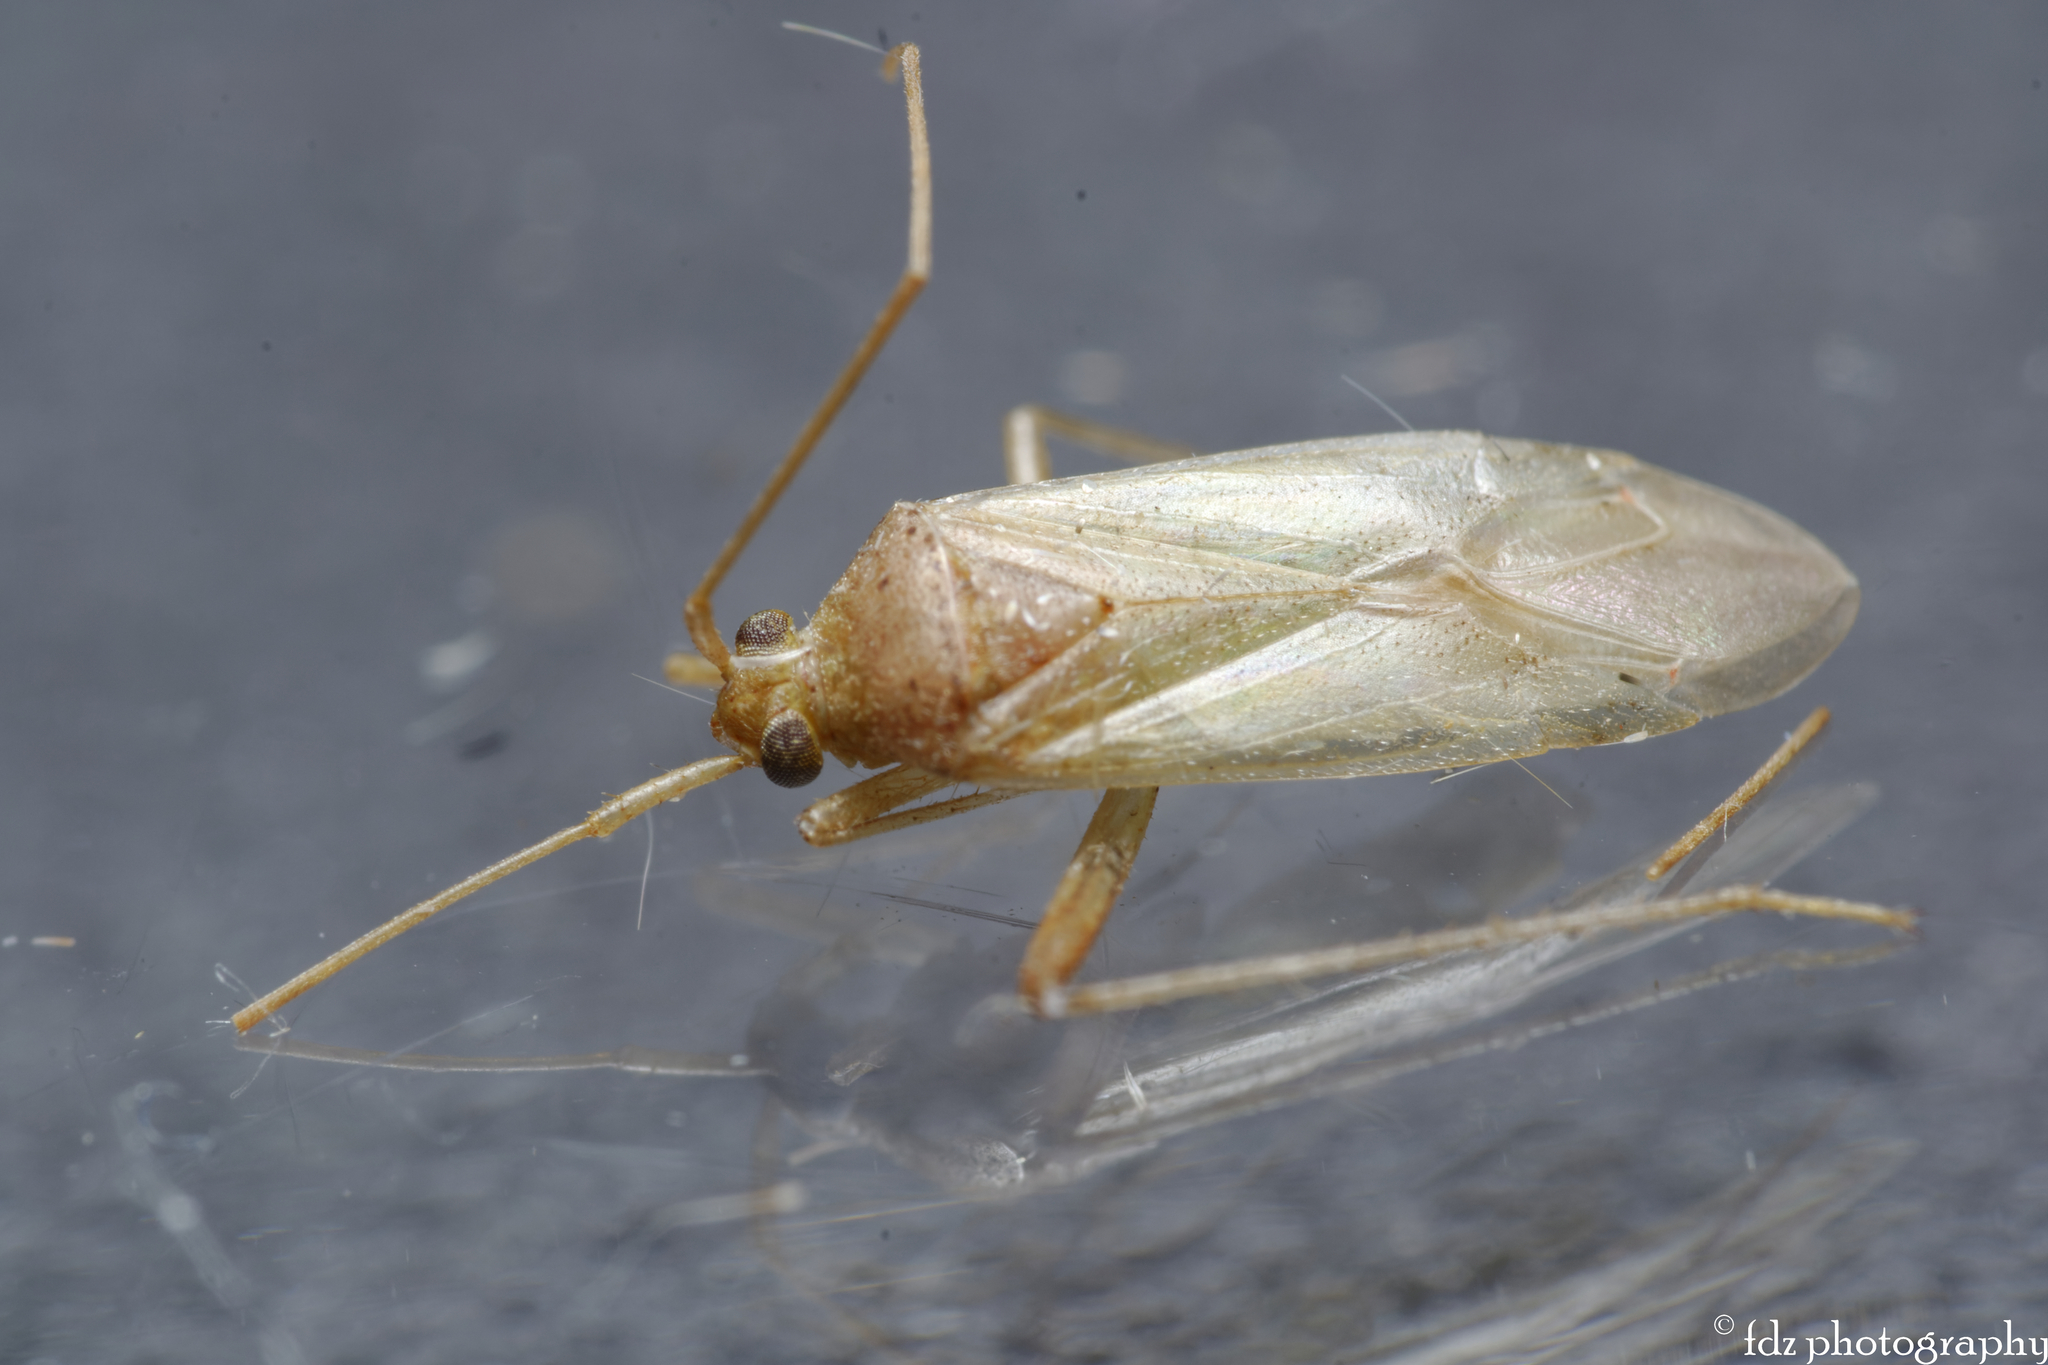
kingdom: Animalia
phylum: Arthropoda
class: Insecta
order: Hemiptera
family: Miridae
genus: Creontiades
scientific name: Creontiades pallidus
